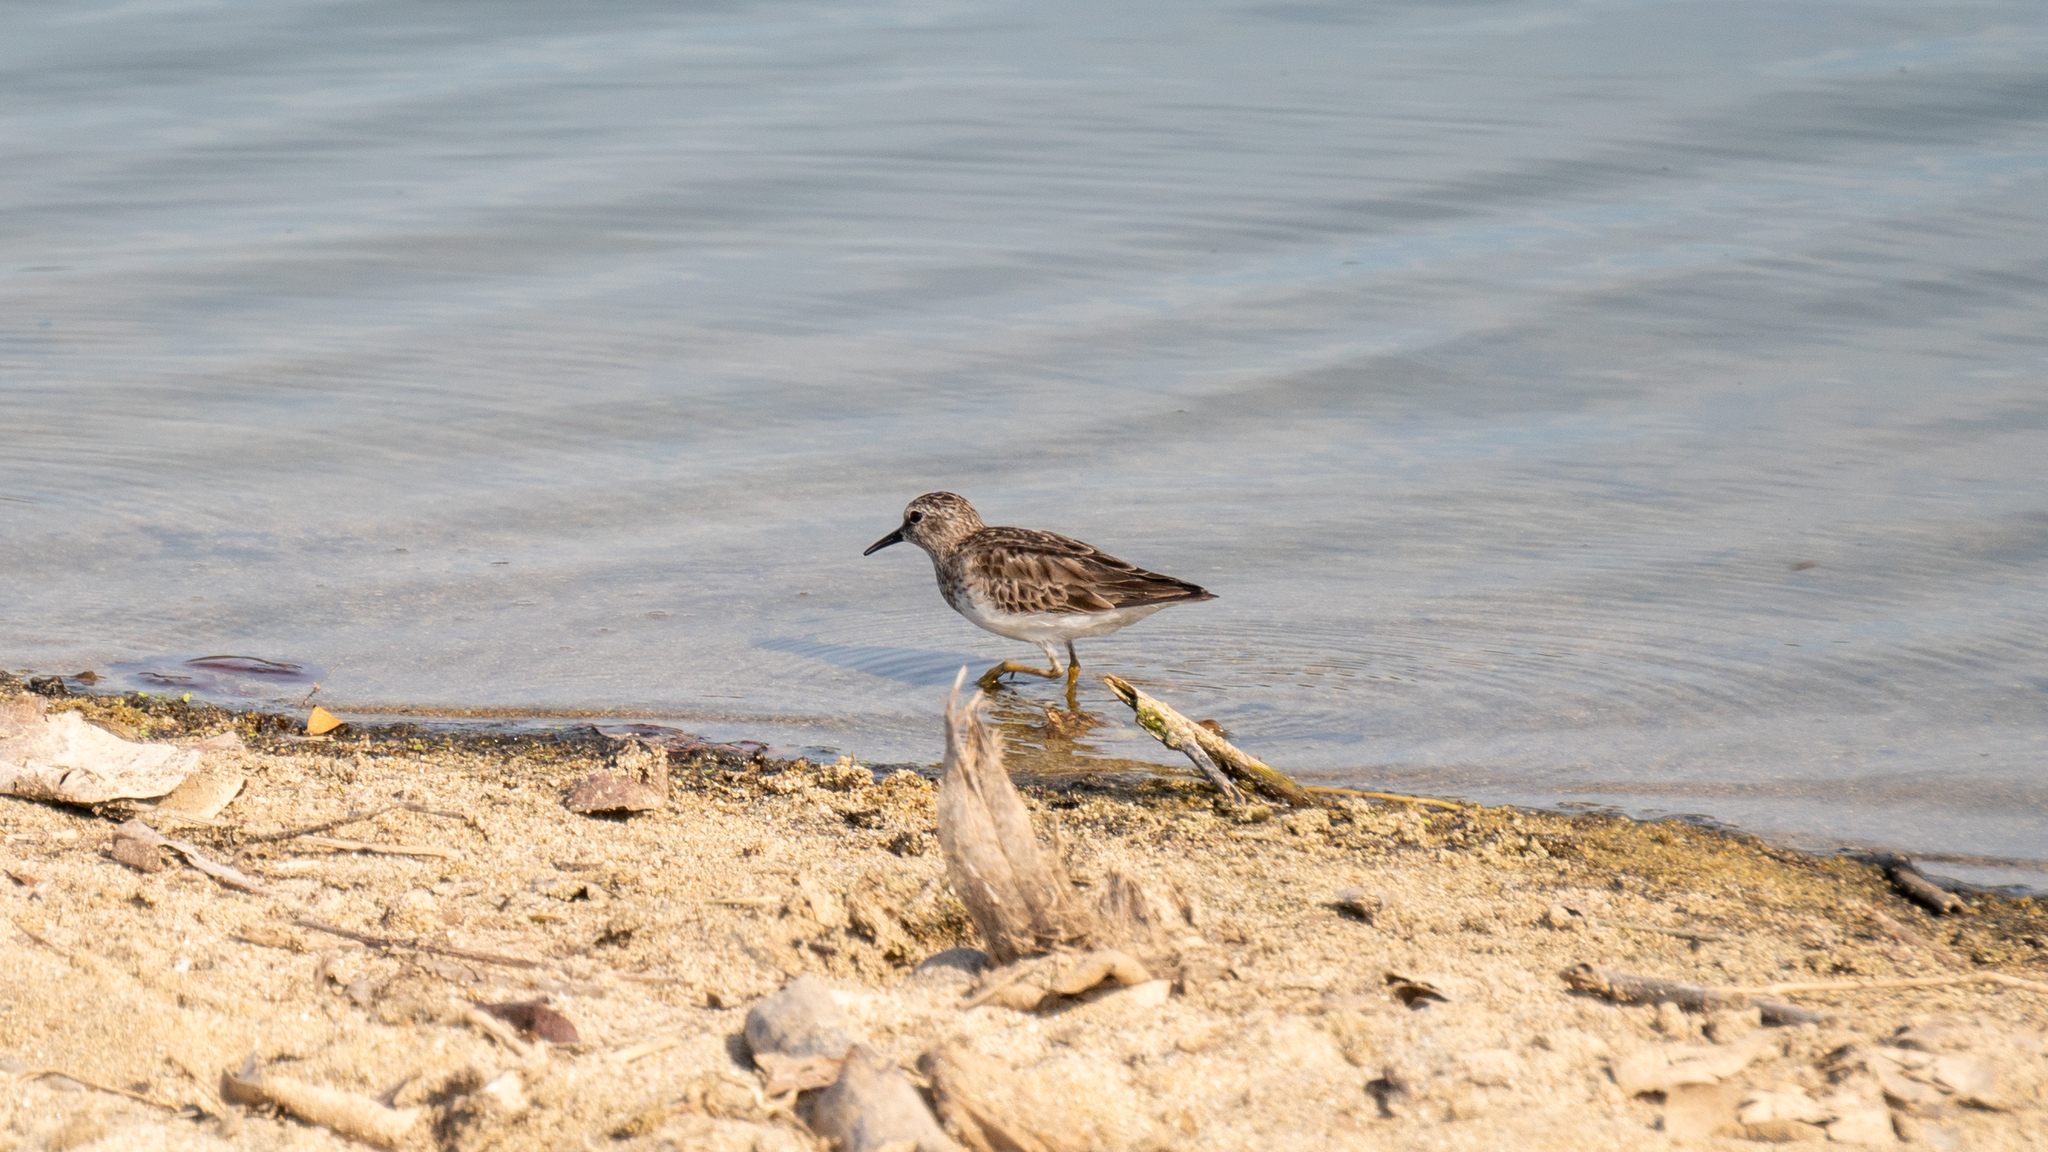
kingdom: Animalia
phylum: Chordata
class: Aves
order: Charadriiformes
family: Scolopacidae
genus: Calidris
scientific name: Calidris minutilla
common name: Least sandpiper
